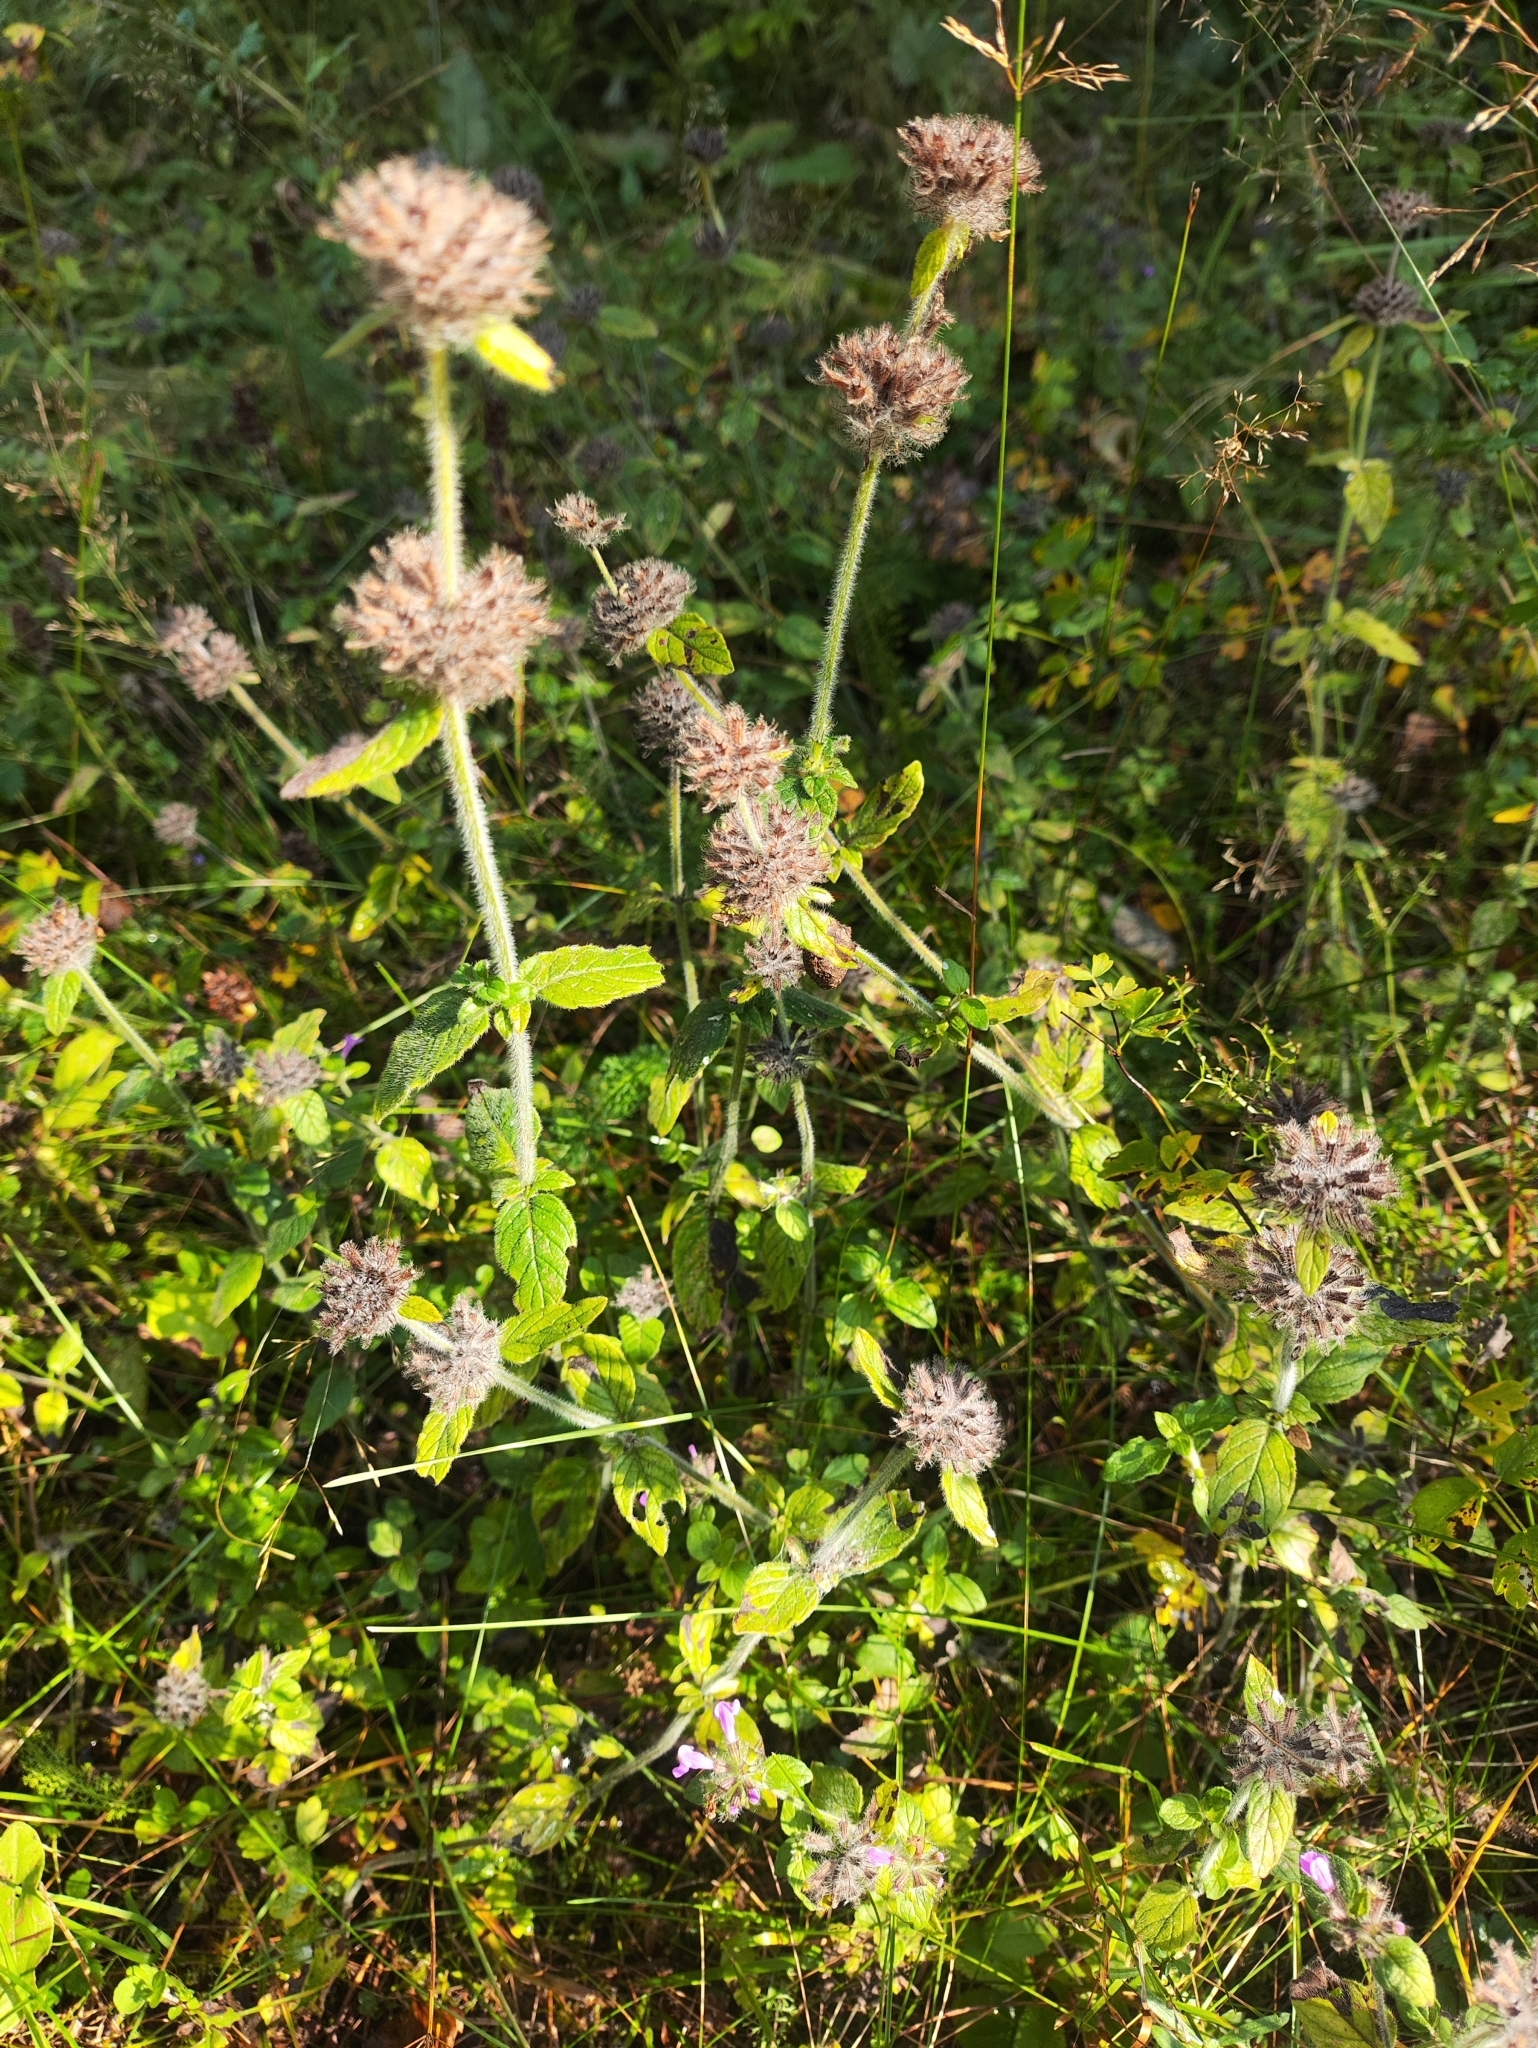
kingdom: Plantae
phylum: Tracheophyta
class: Magnoliopsida
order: Lamiales
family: Lamiaceae
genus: Clinopodium
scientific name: Clinopodium vulgare
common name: Wild basil
